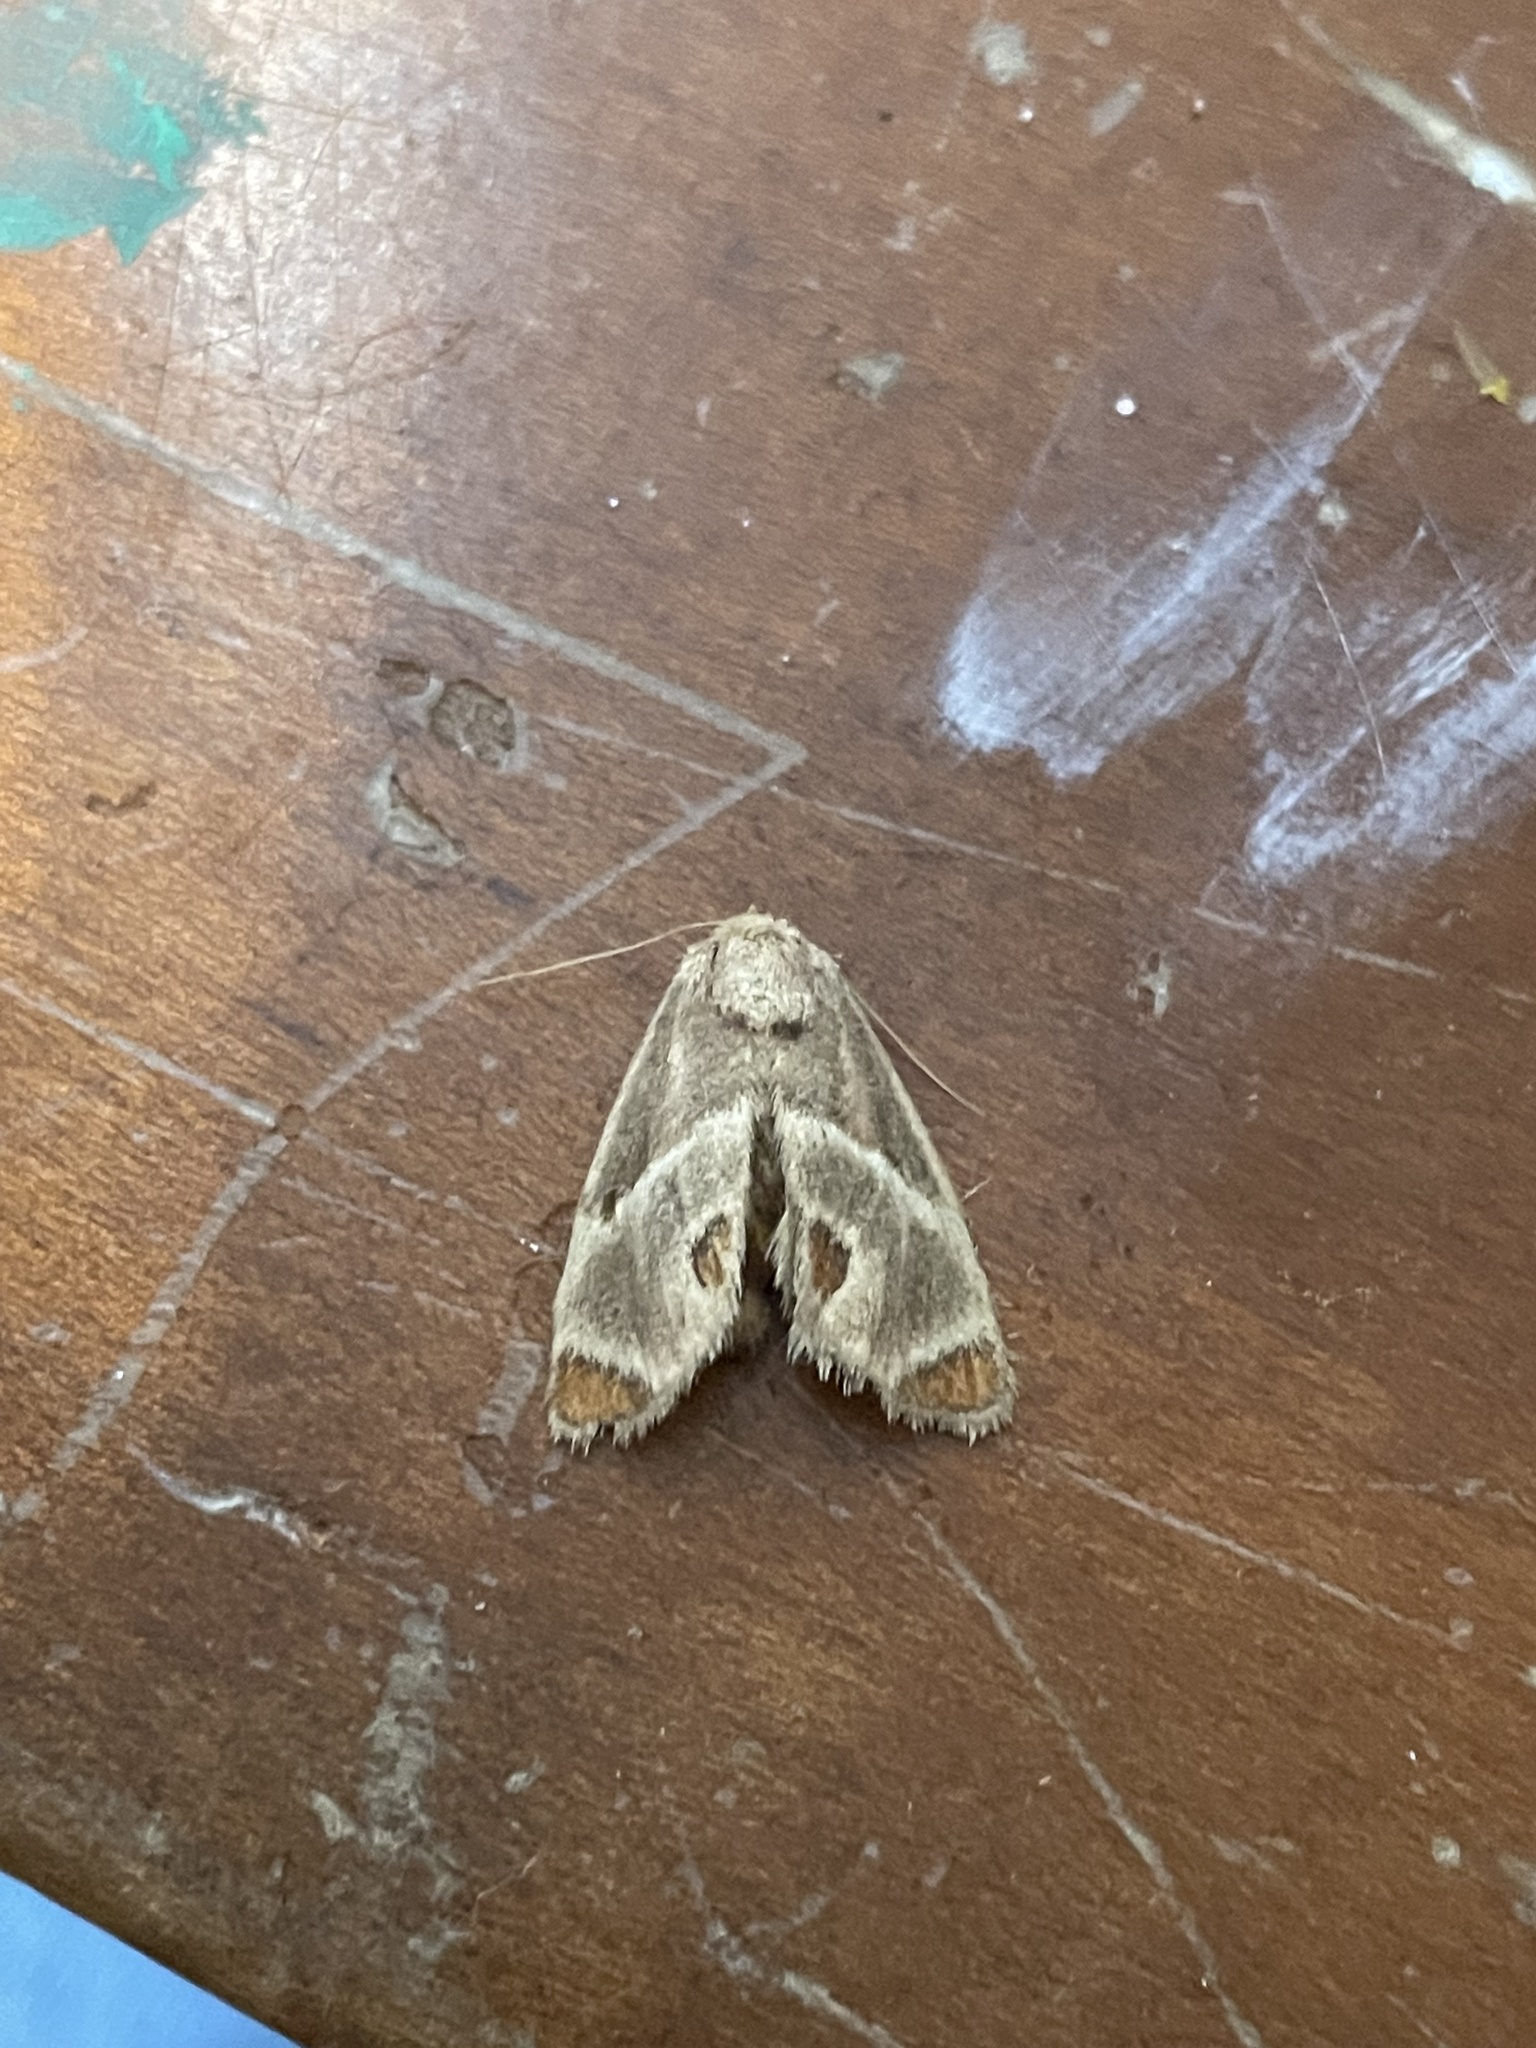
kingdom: Animalia
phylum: Arthropoda
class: Insecta
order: Lepidoptera
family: Limacodidae
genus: Apoda
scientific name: Apoda biguttata
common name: Shagreened slug moth
